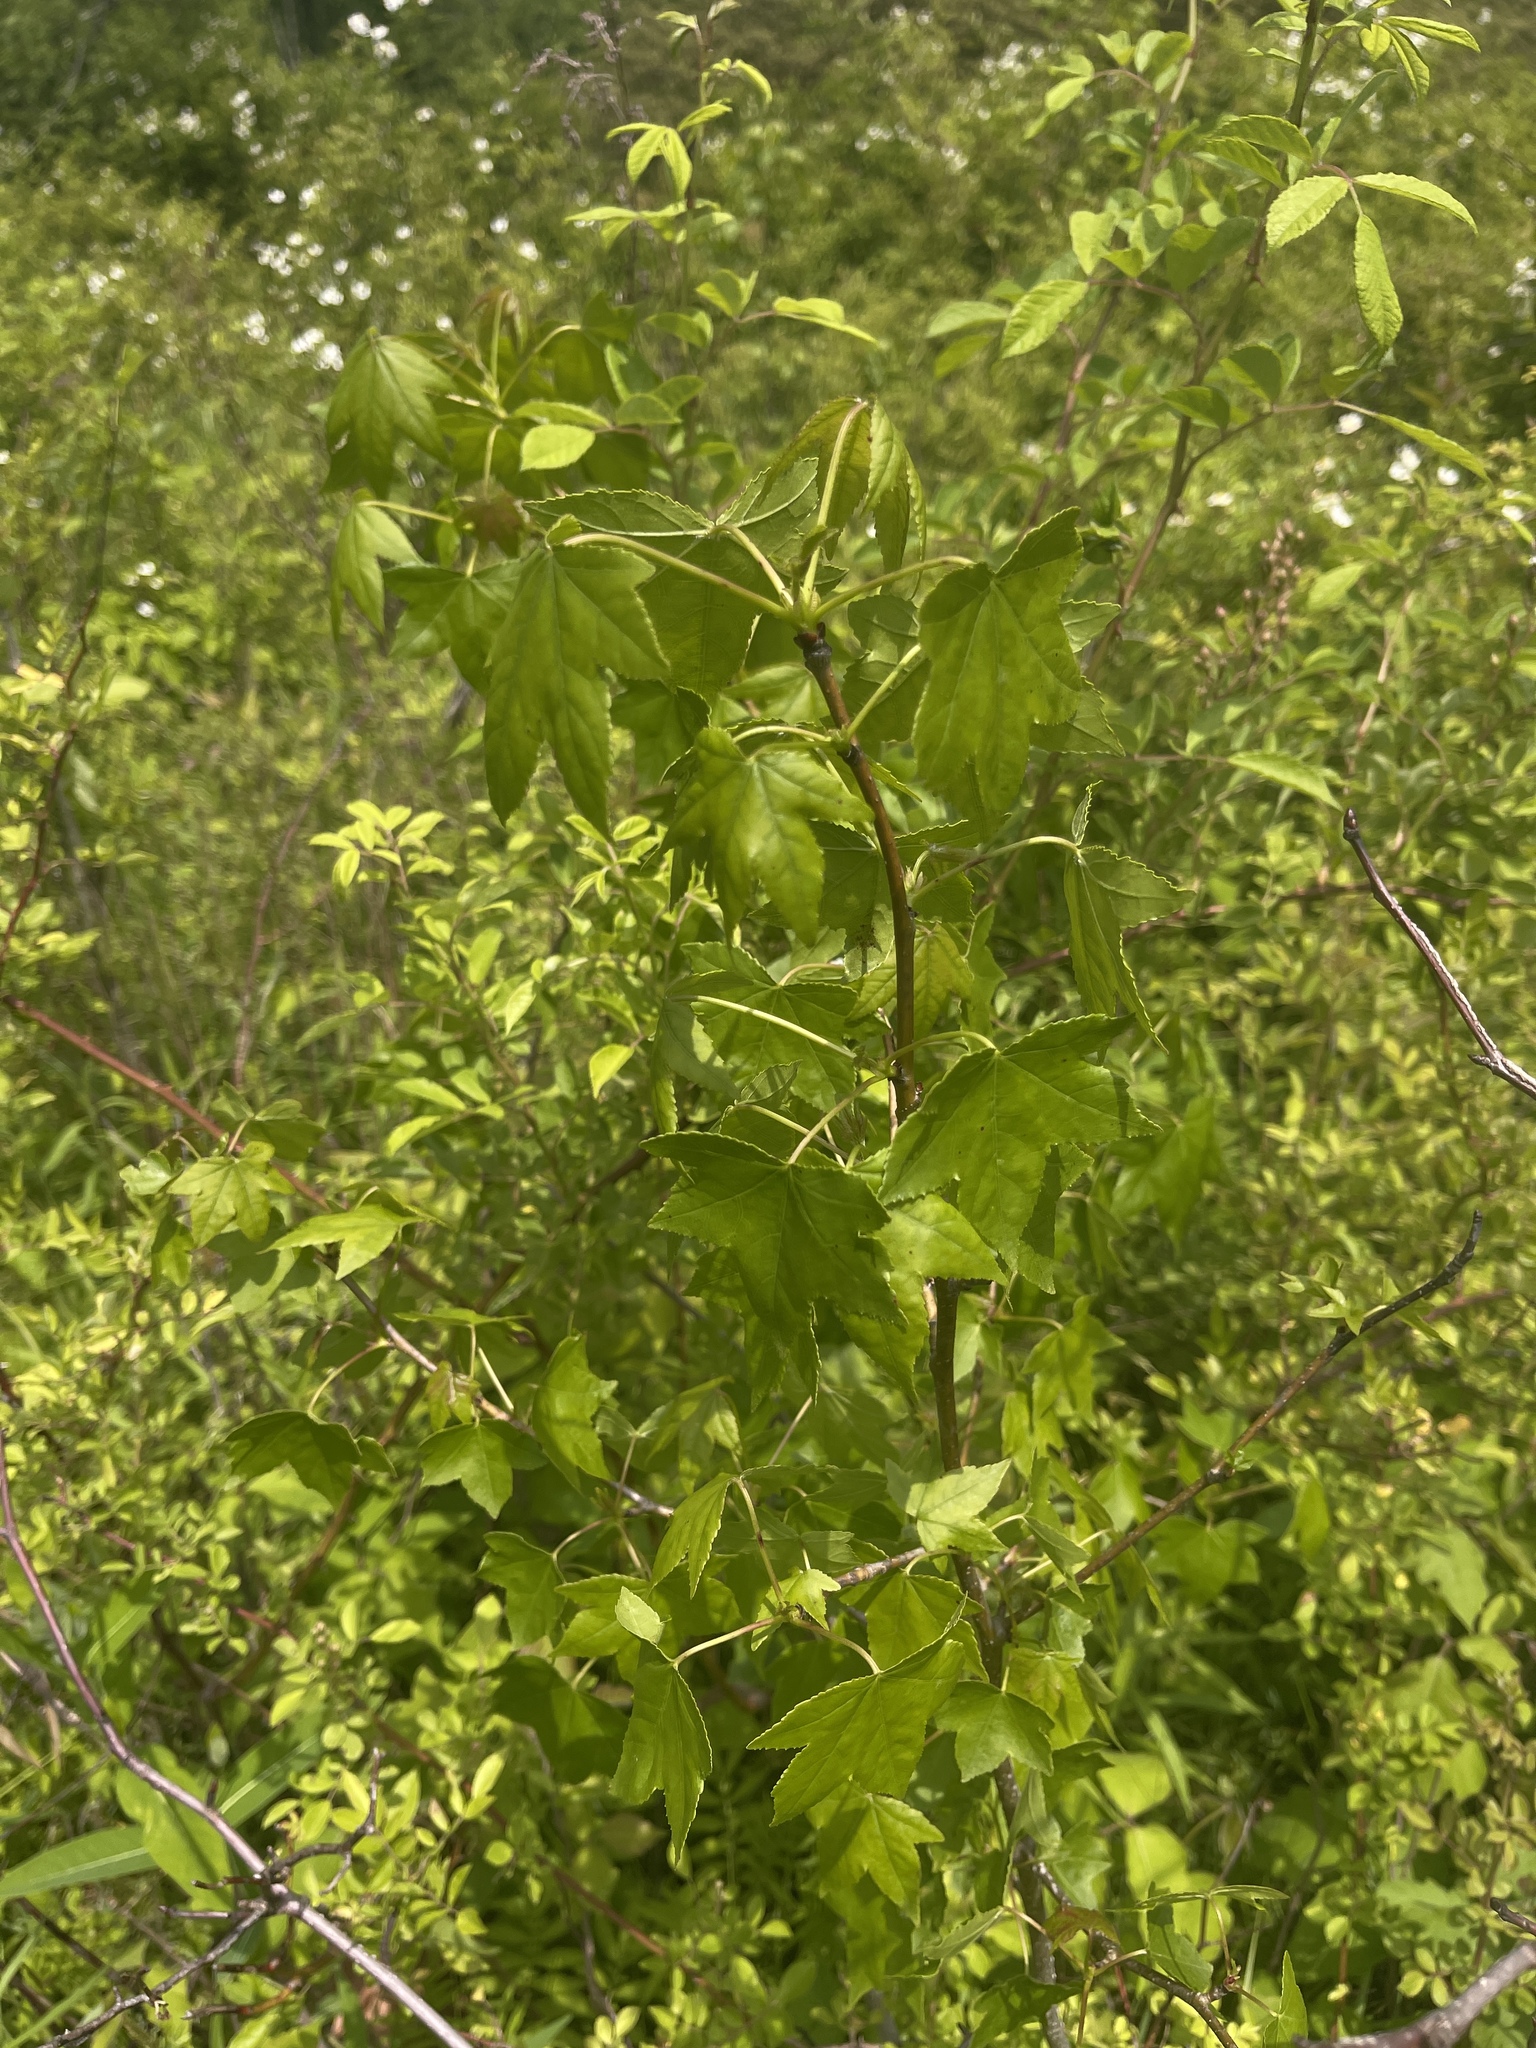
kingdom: Plantae
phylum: Tracheophyta
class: Magnoliopsida
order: Saxifragales
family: Altingiaceae
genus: Liquidambar
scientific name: Liquidambar styraciflua
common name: Sweet gum
